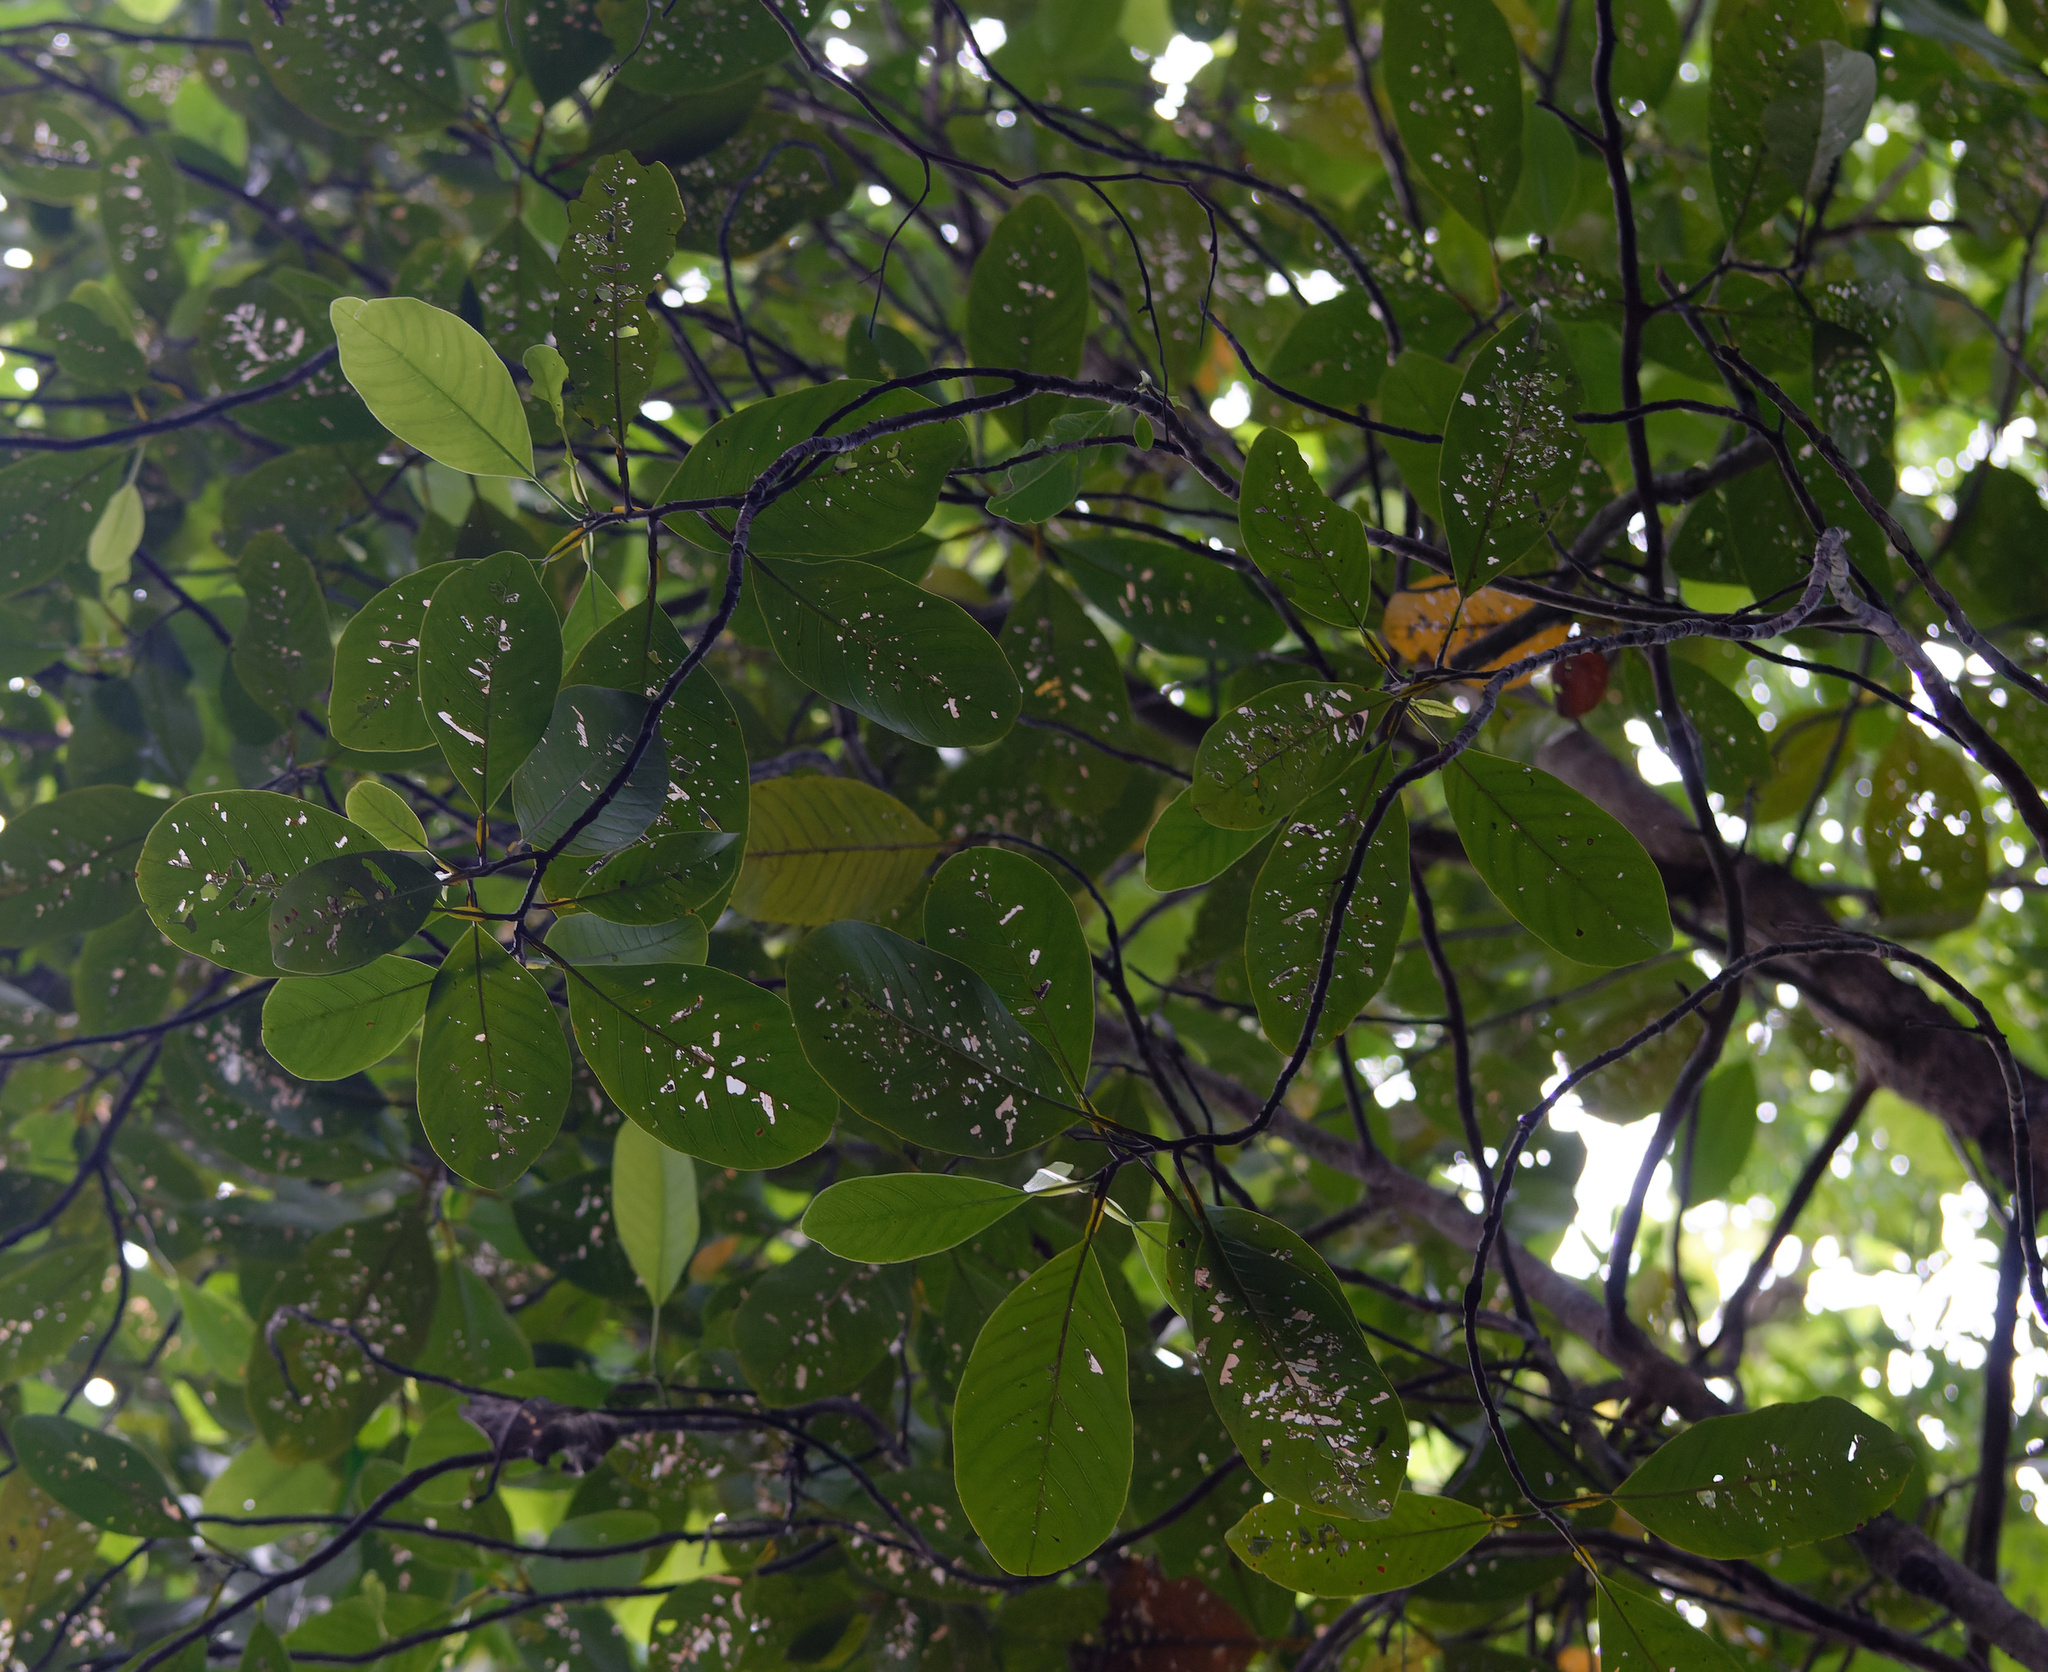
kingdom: Plantae
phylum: Tracheophyta
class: Magnoliopsida
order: Dilleniales
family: Dilleniaceae
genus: Dillenia
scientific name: Dillenia alata
